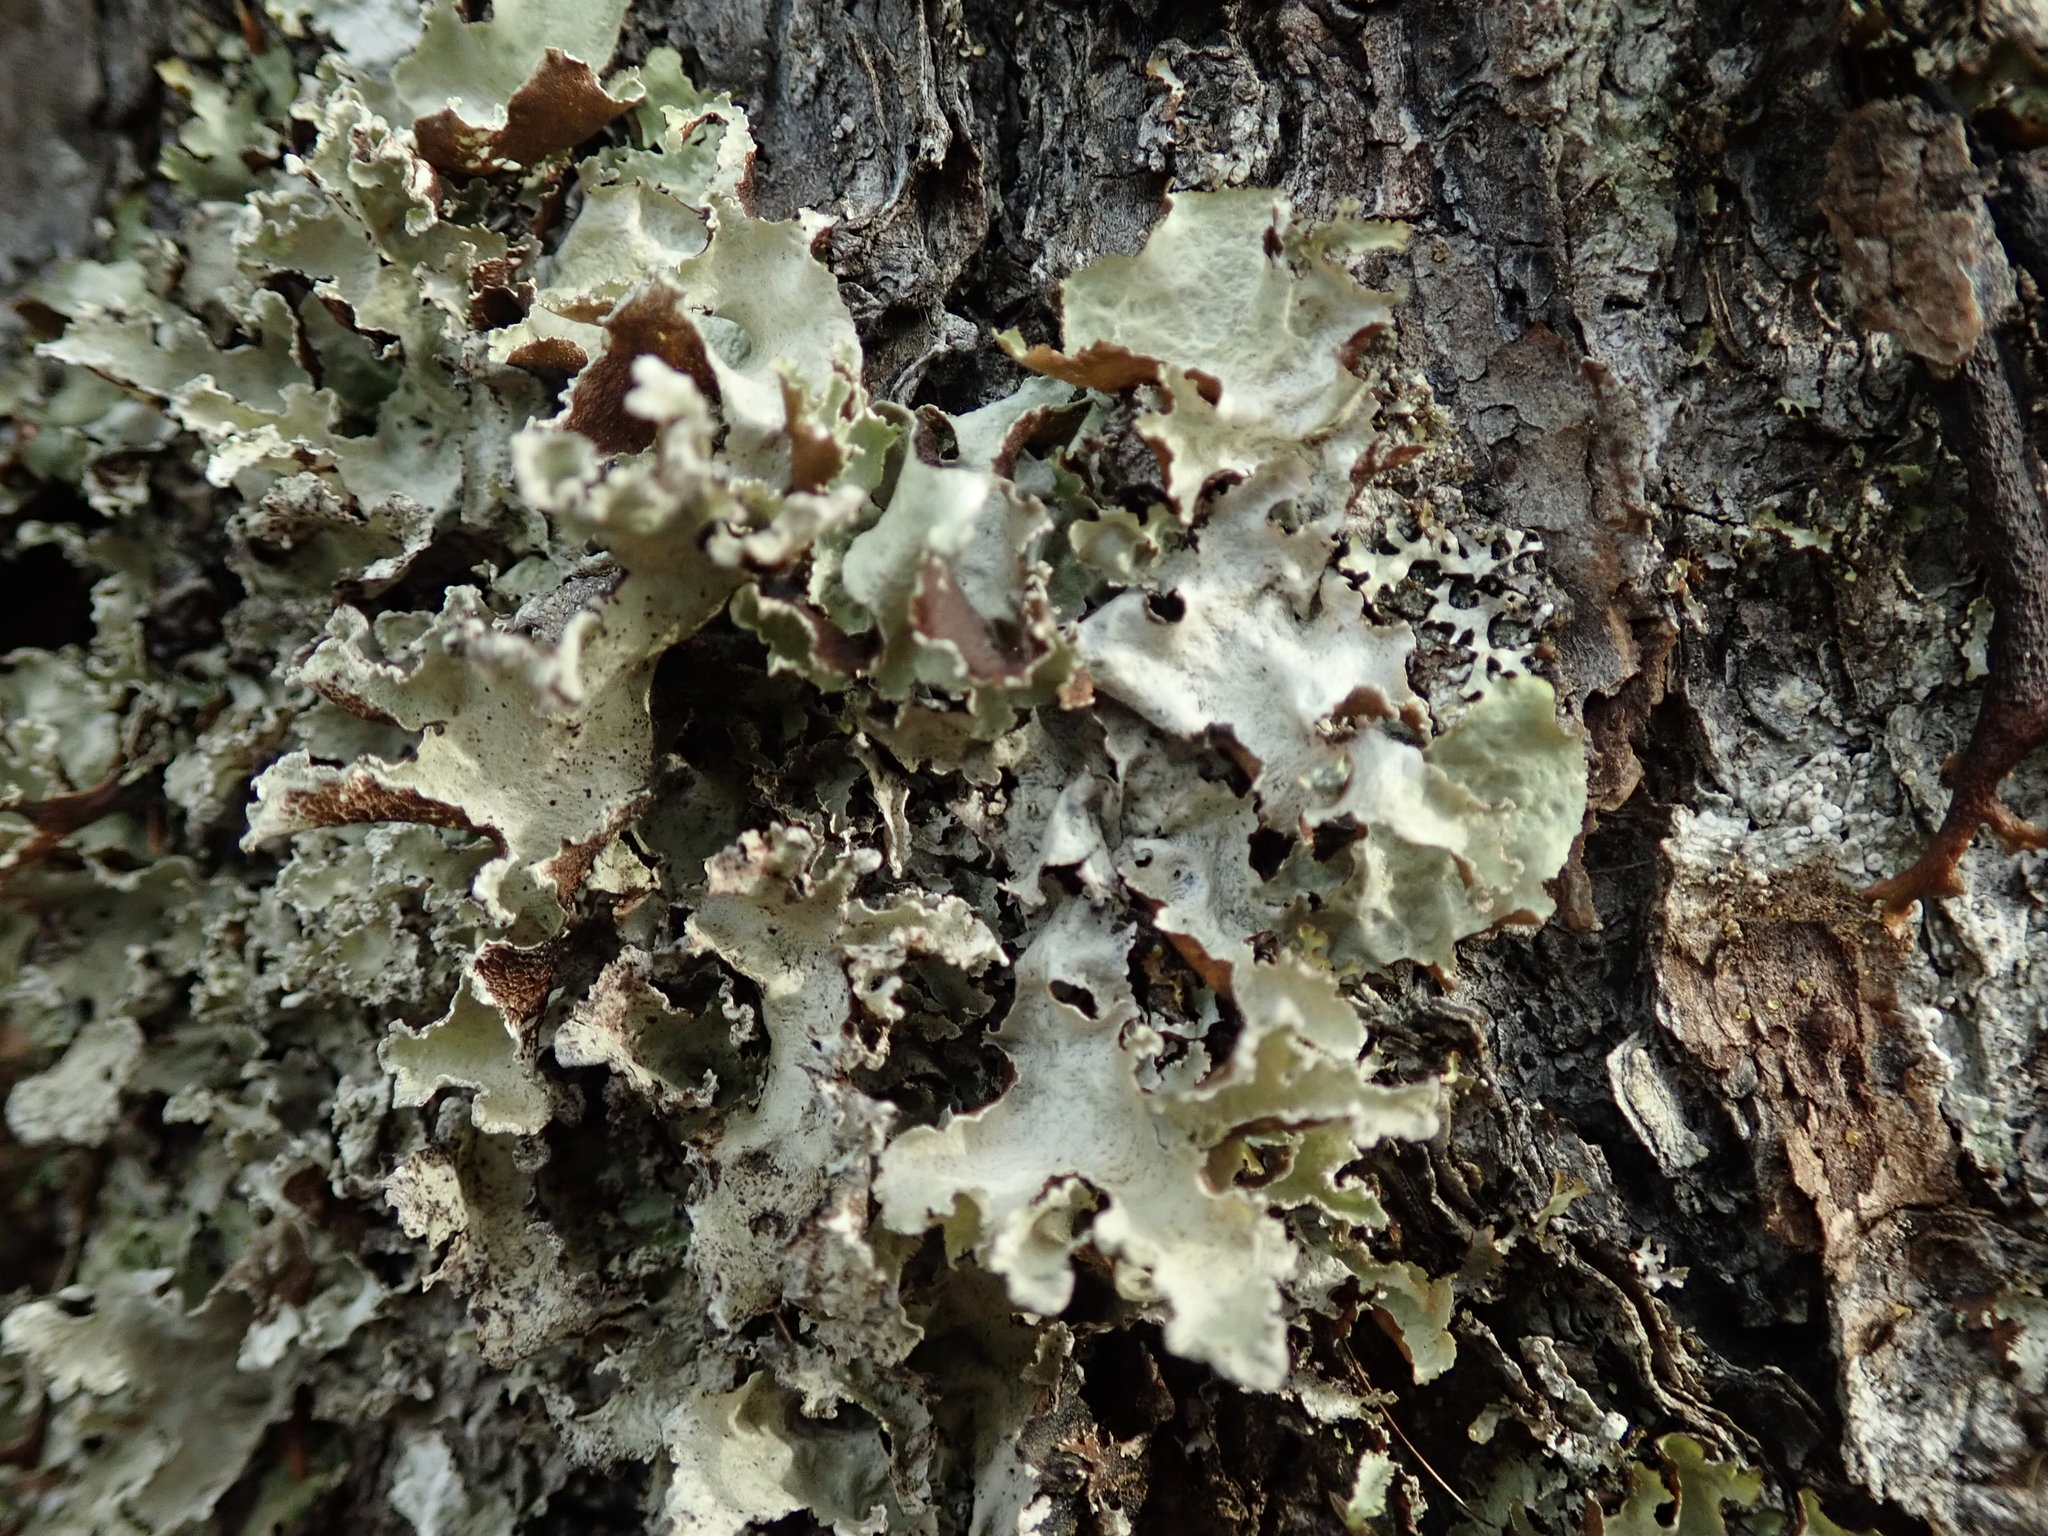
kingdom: Fungi
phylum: Ascomycota
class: Lecanoromycetes
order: Lecanorales
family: Parmeliaceae
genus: Platismatia
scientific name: Platismatia glauca
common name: Varied rag lichen
